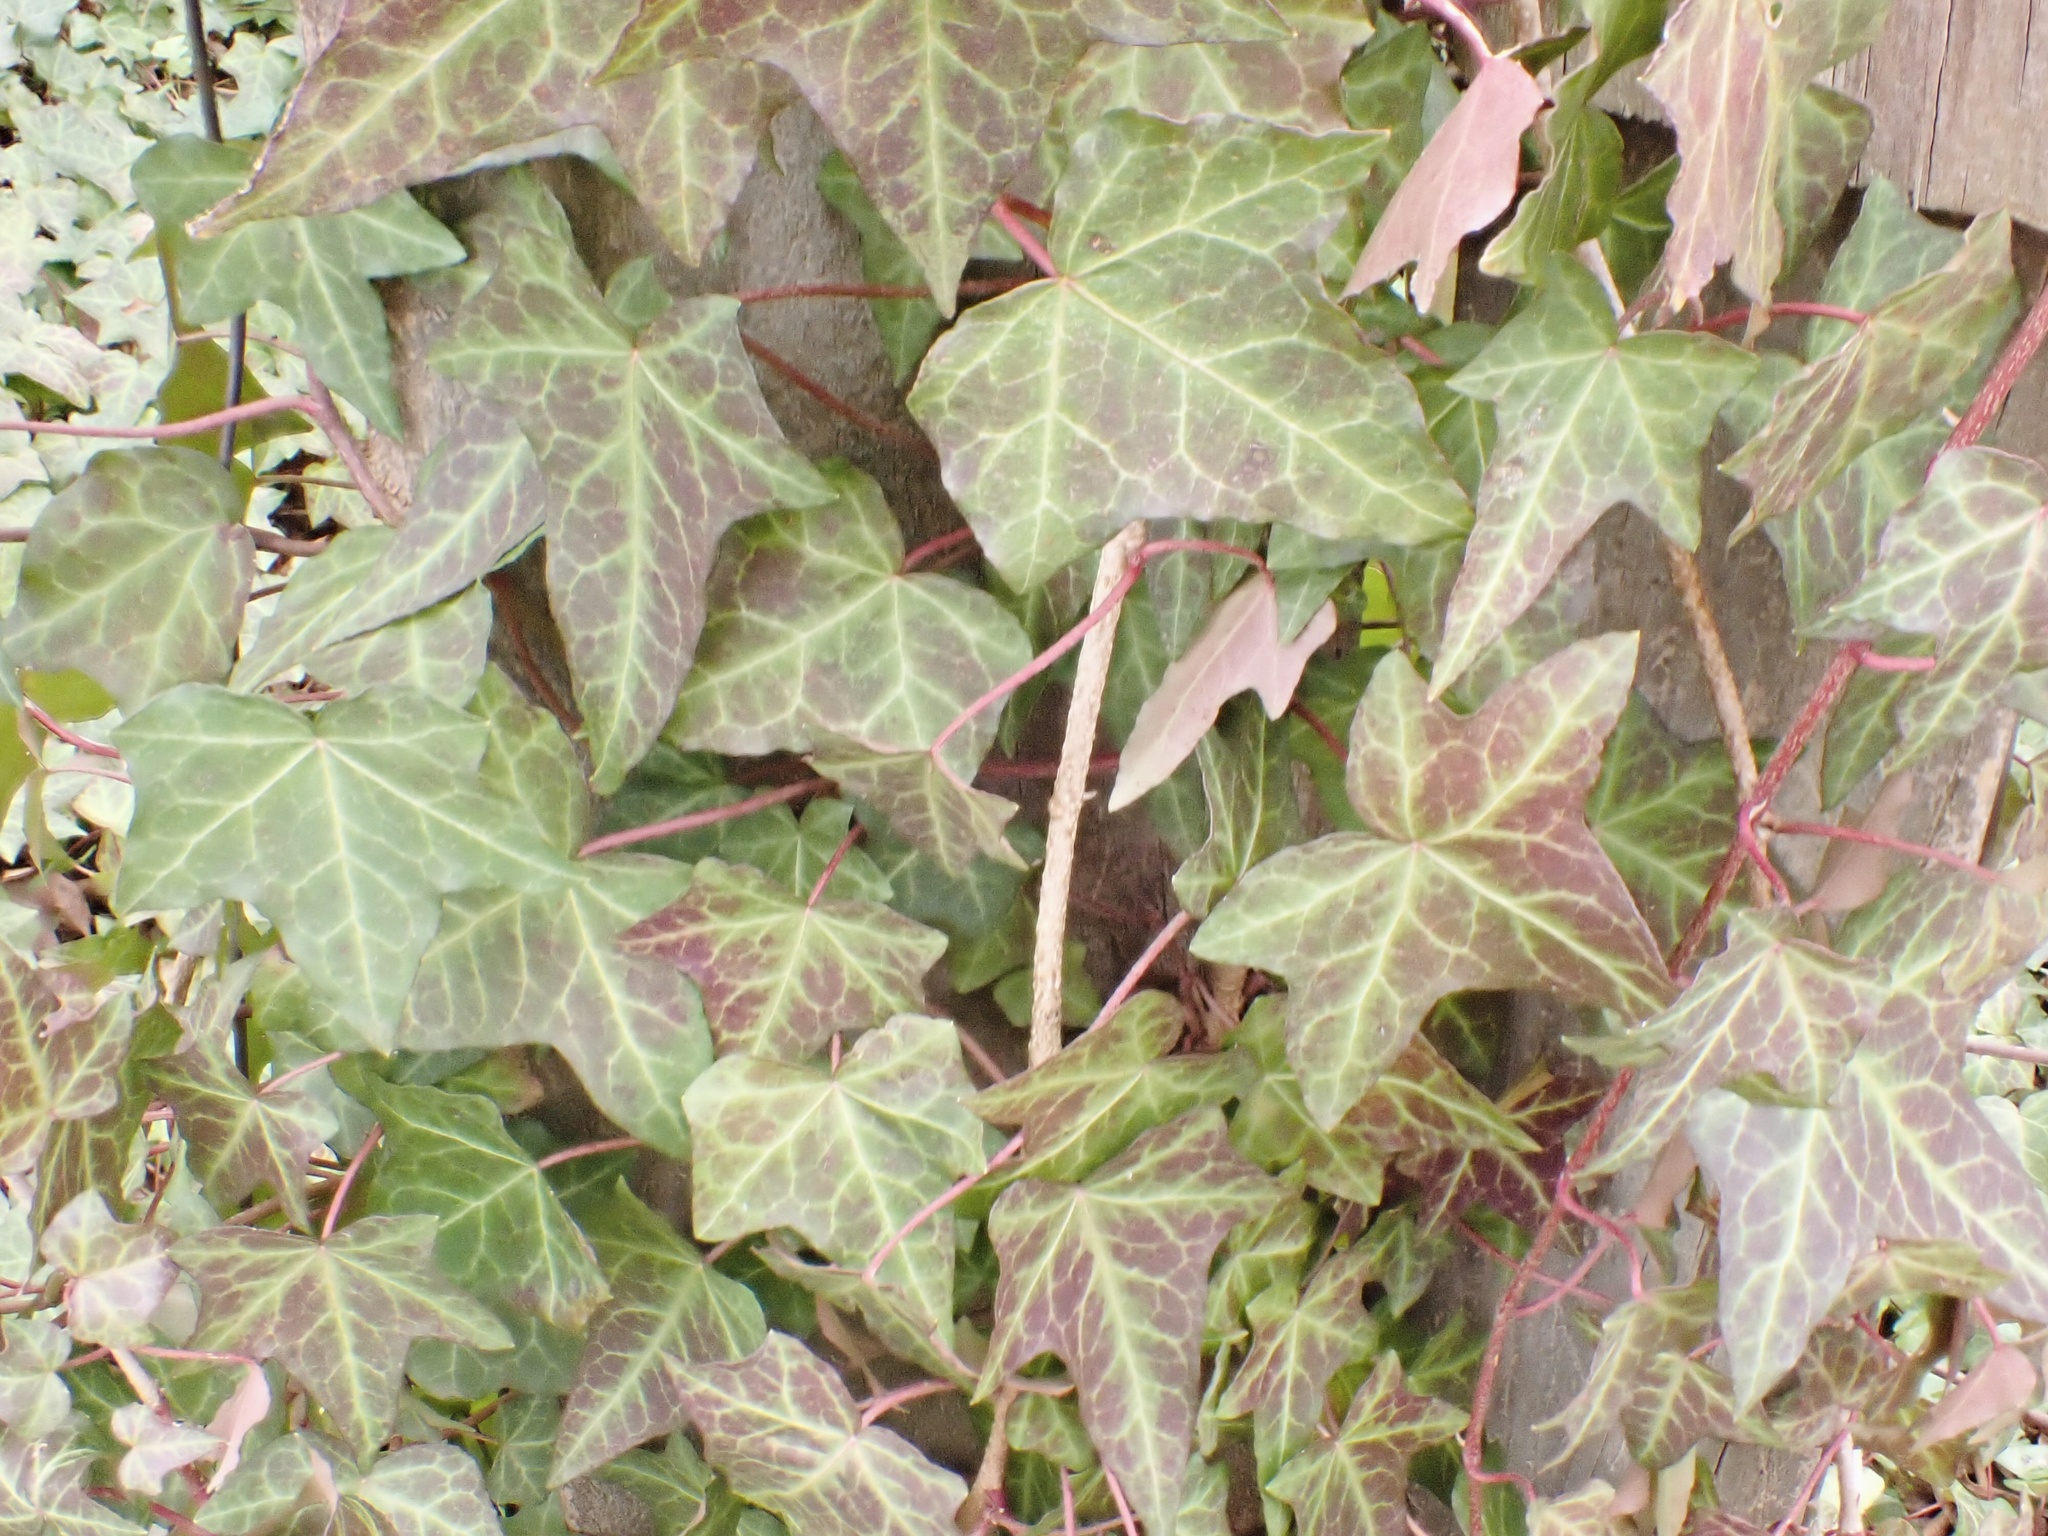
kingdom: Plantae
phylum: Tracheophyta
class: Magnoliopsida
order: Apiales
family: Araliaceae
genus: Hedera
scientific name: Hedera helix
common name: Ivy
